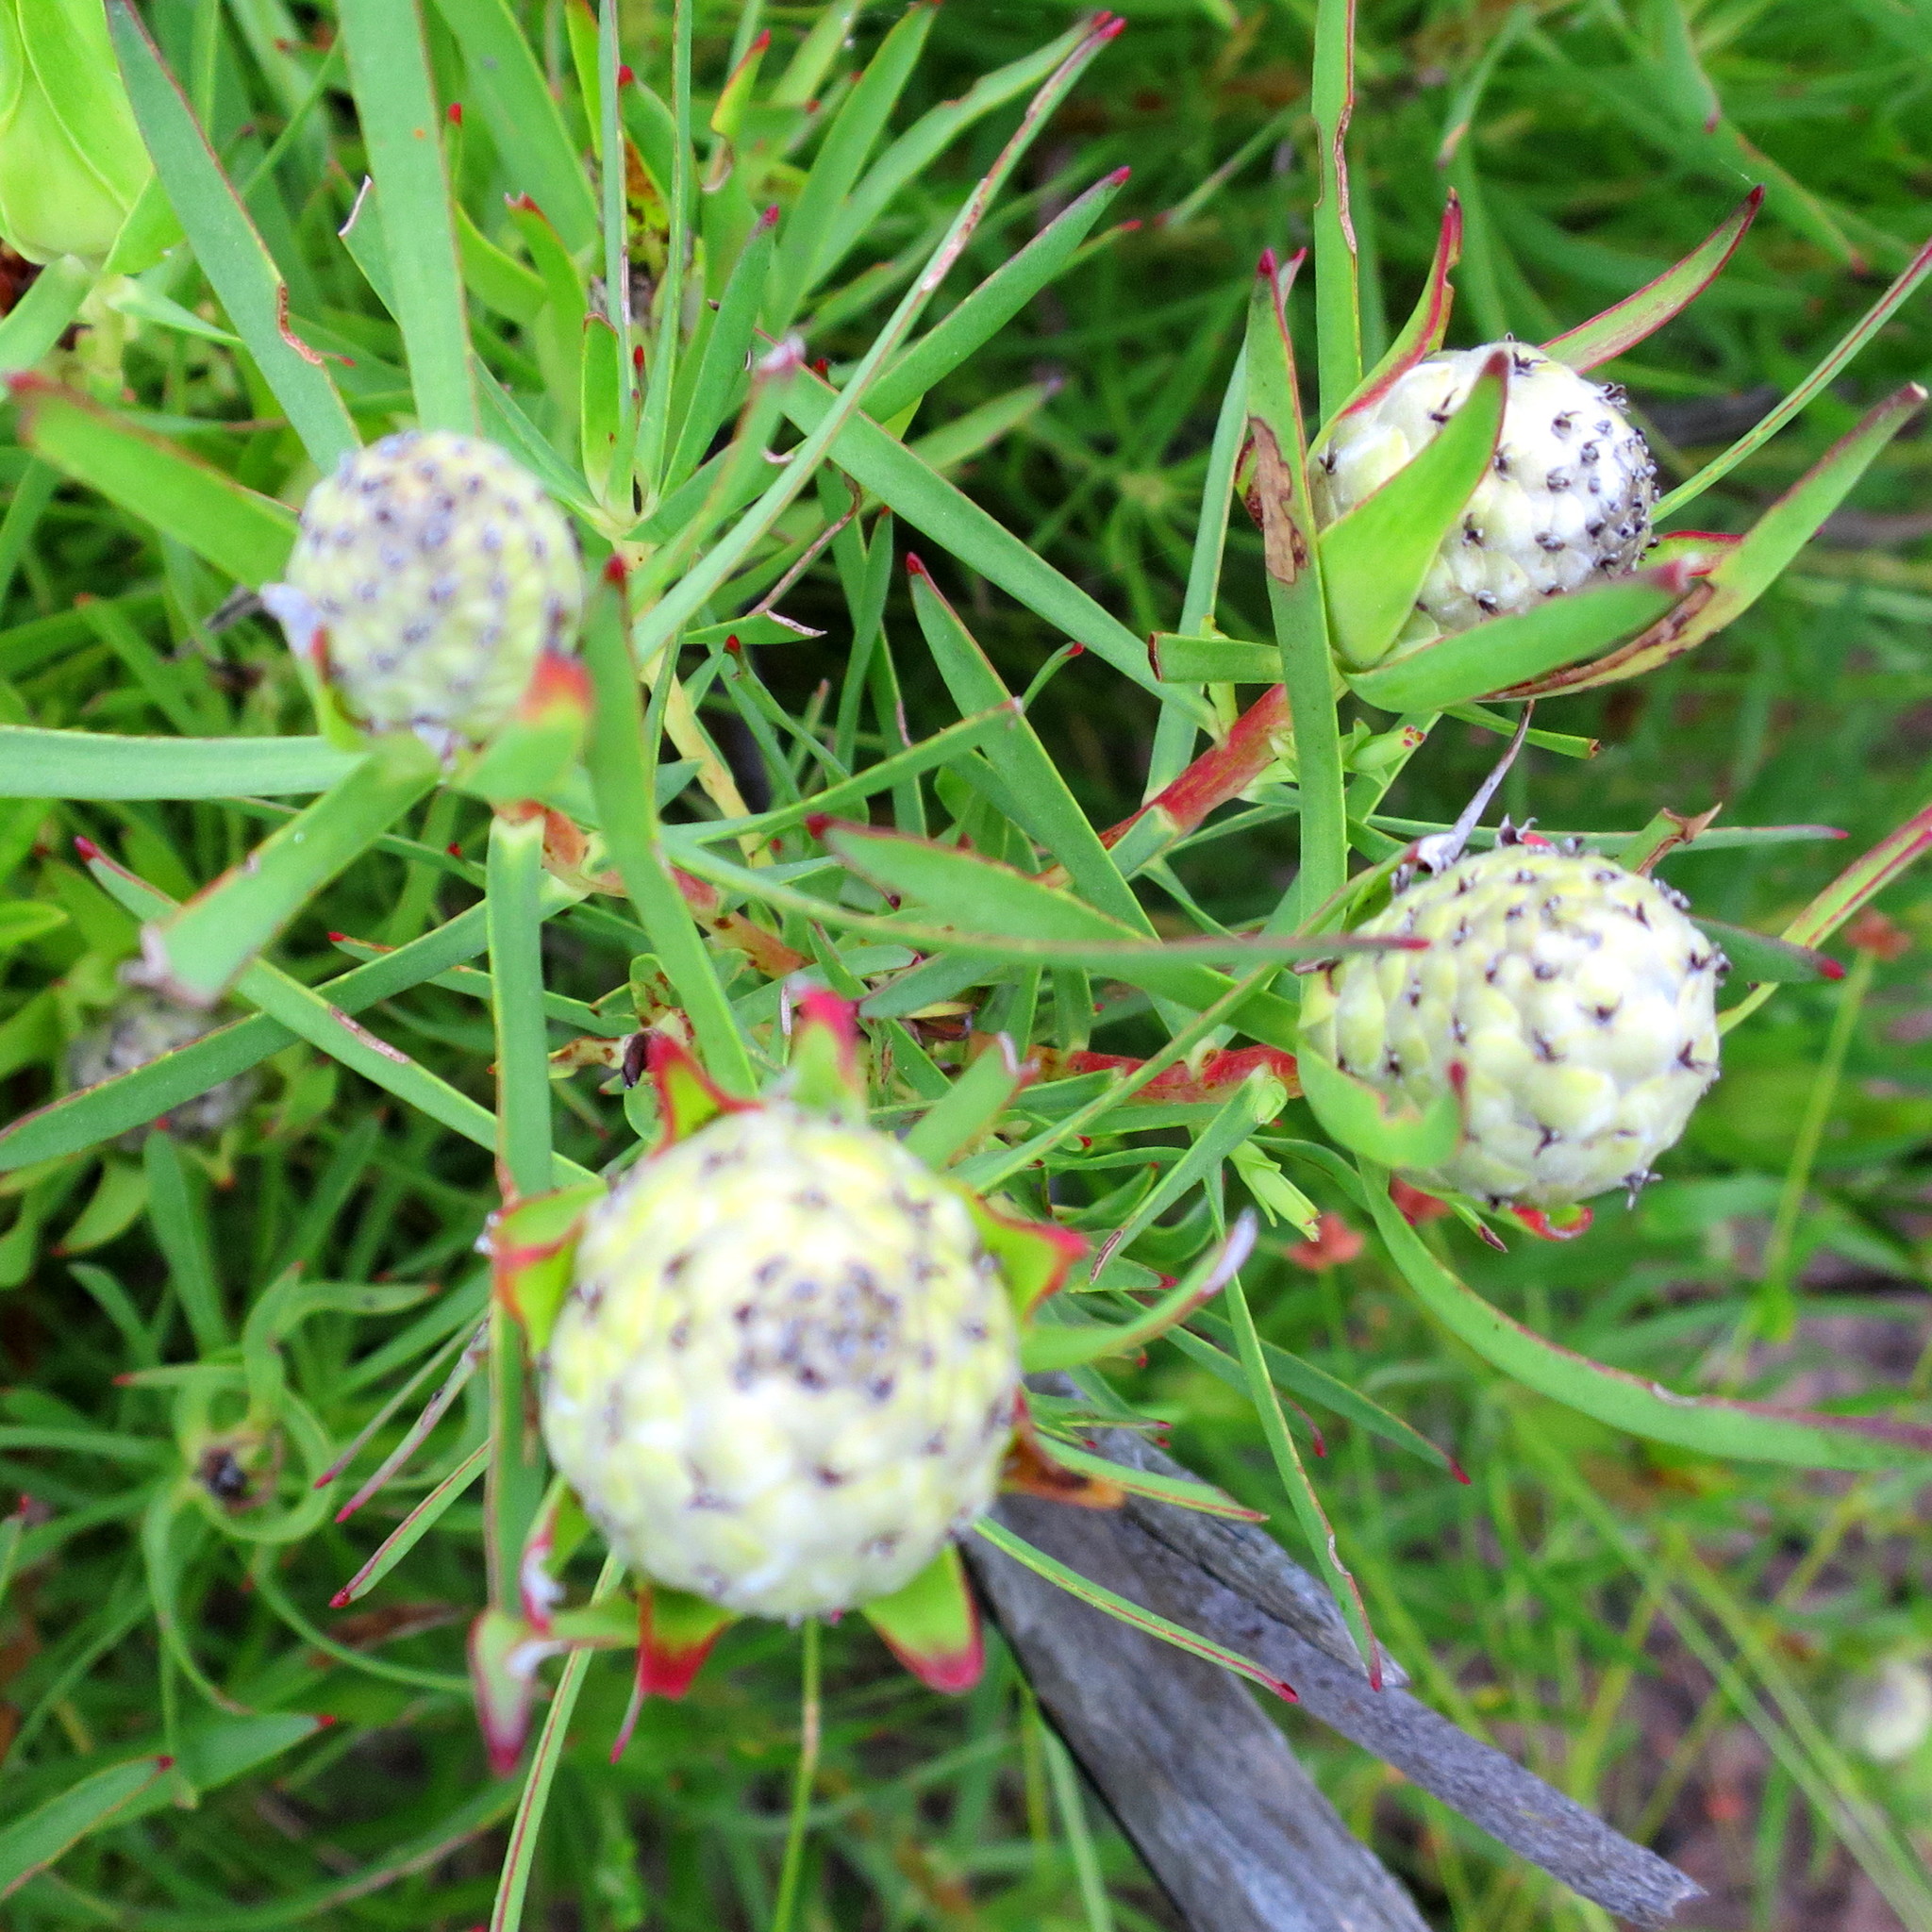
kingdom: Plantae
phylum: Tracheophyta
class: Magnoliopsida
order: Proteales
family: Proteaceae
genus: Leucadendron
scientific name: Leucadendron salignum
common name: Common sunshine conebush
